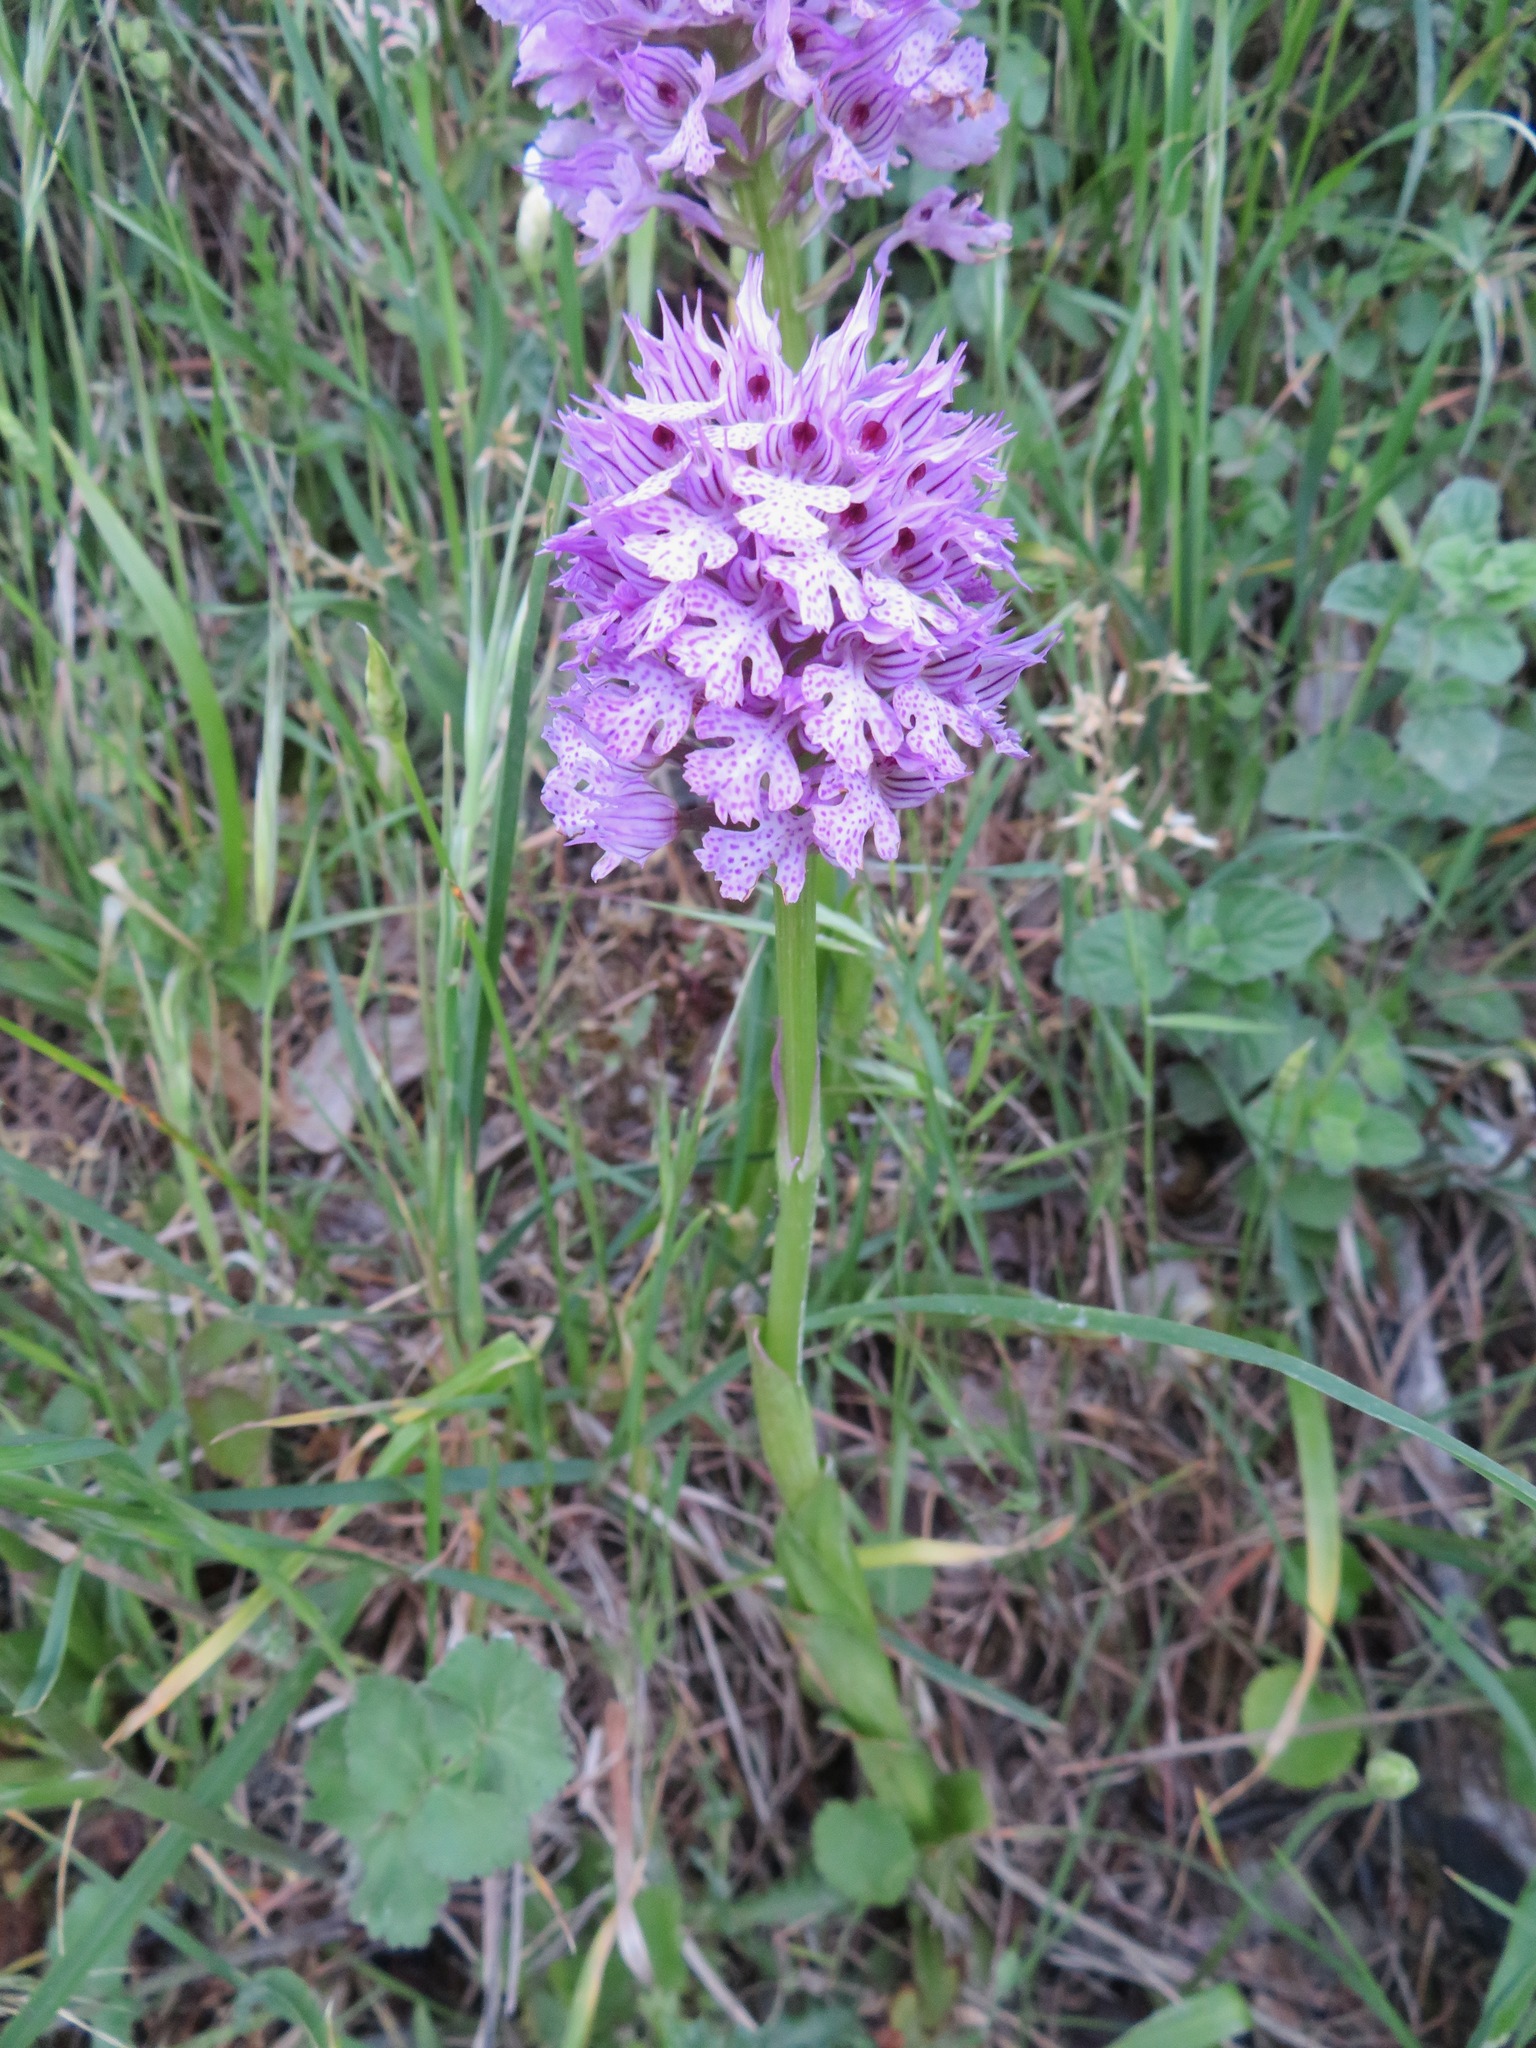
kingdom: Plantae
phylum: Tracheophyta
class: Liliopsida
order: Asparagales
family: Orchidaceae
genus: Neotinea
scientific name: Neotinea commutata
